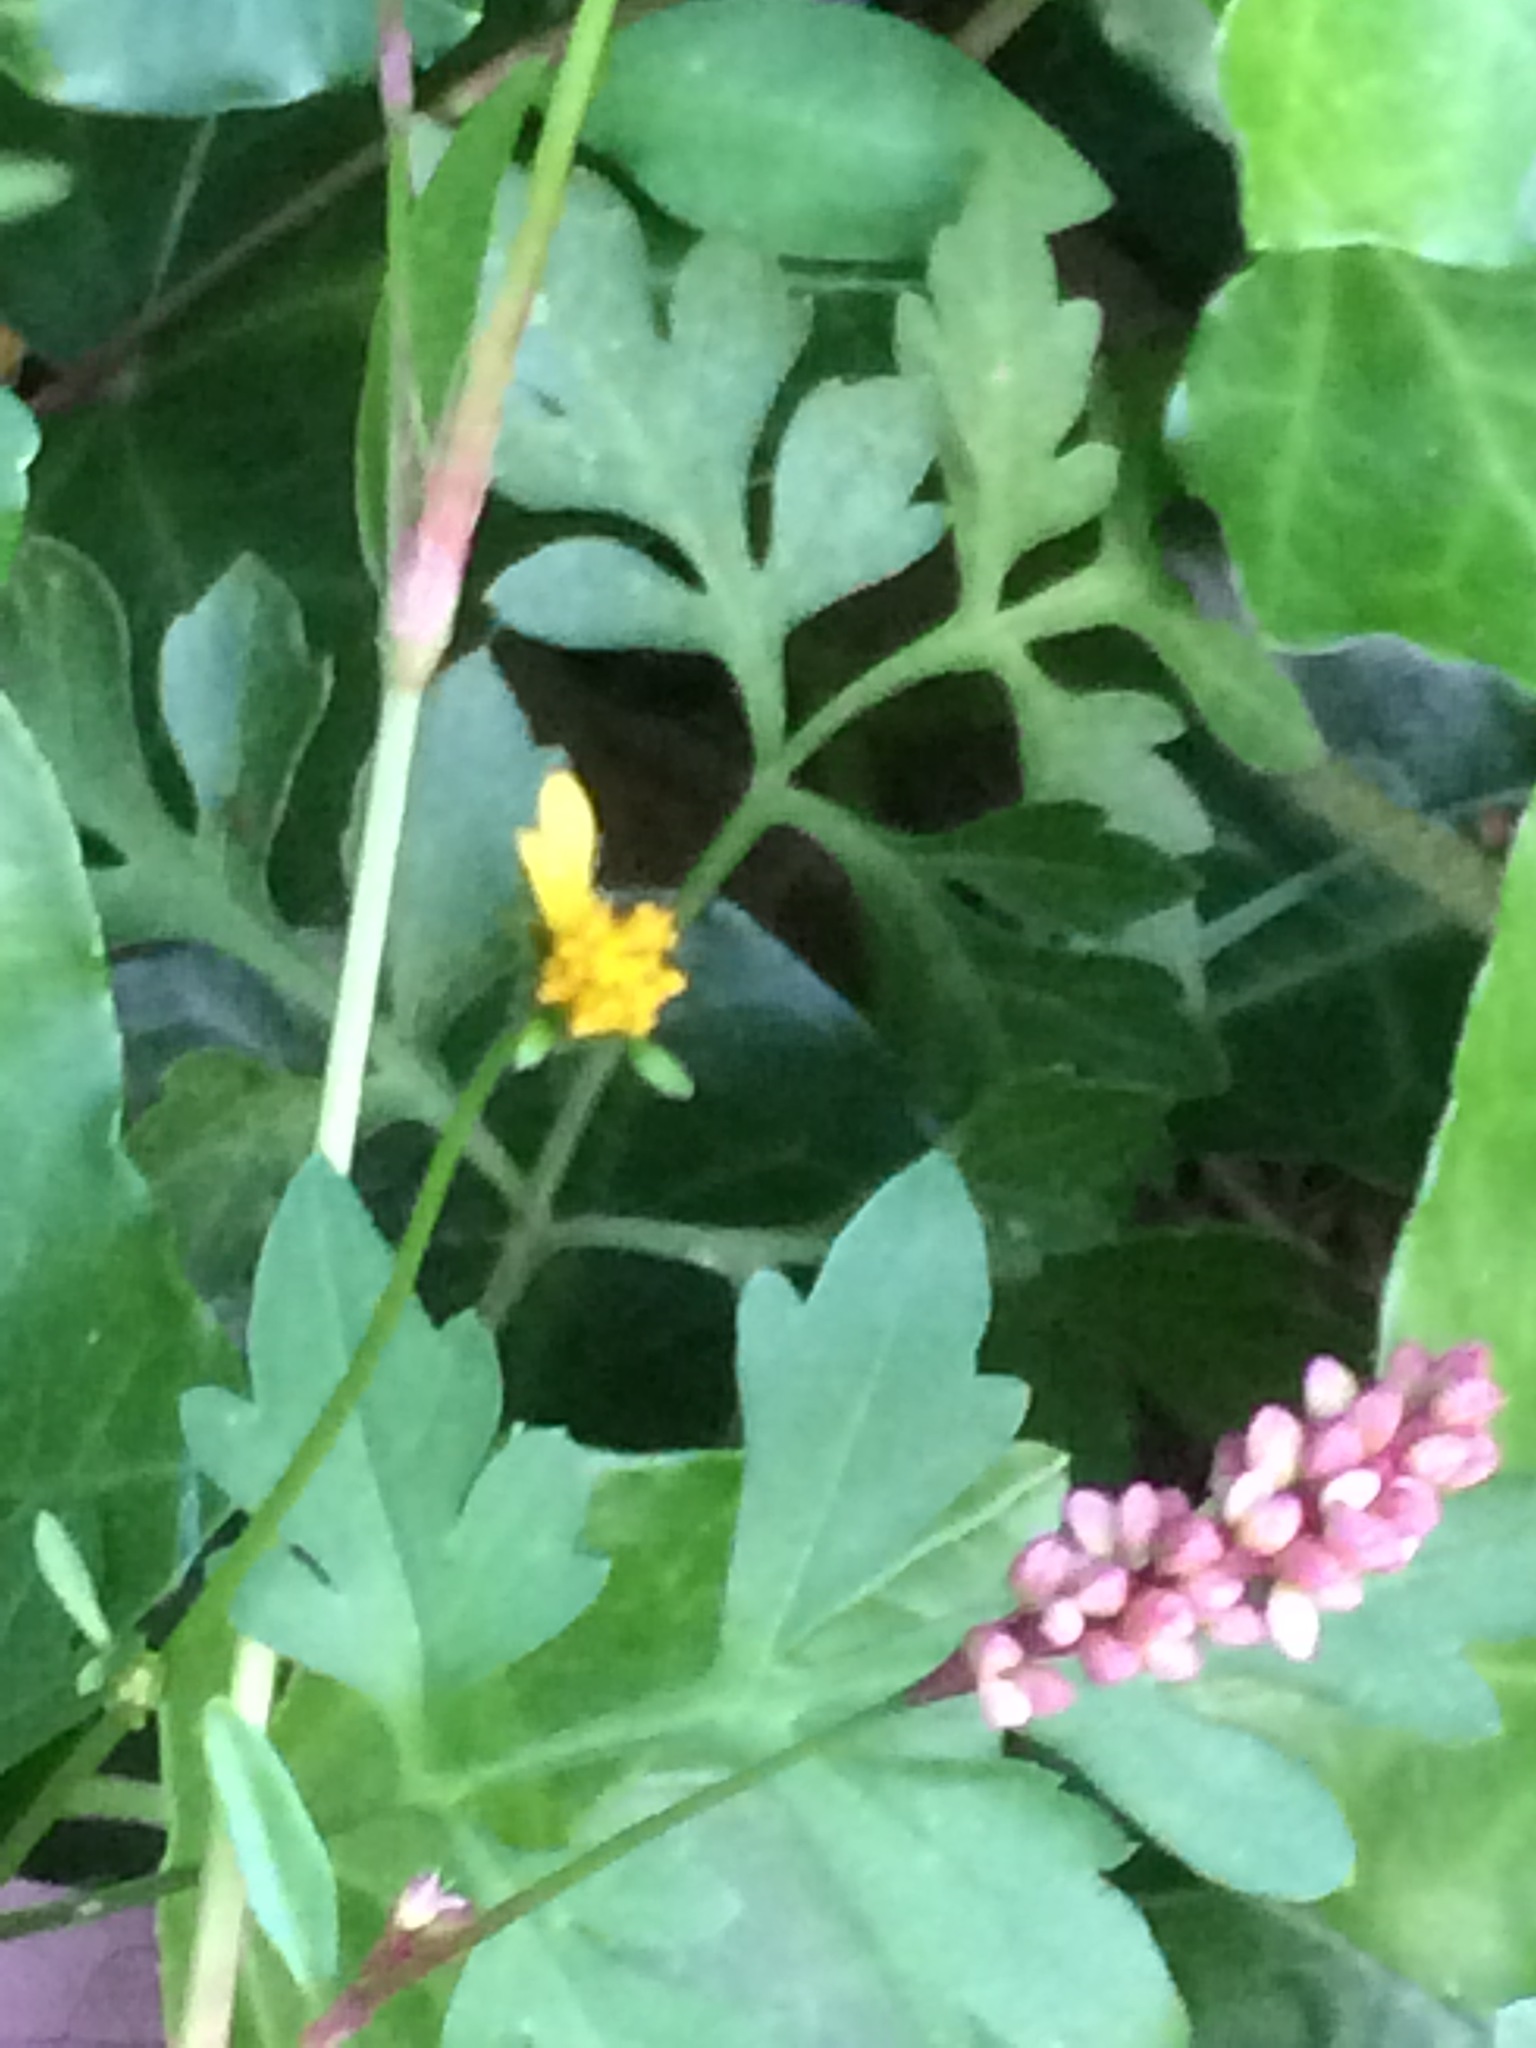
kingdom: Plantae
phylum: Tracheophyta
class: Magnoliopsida
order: Asterales
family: Asteraceae
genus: Bidens
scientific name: Bidens bipinnata
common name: Spanish-needles
